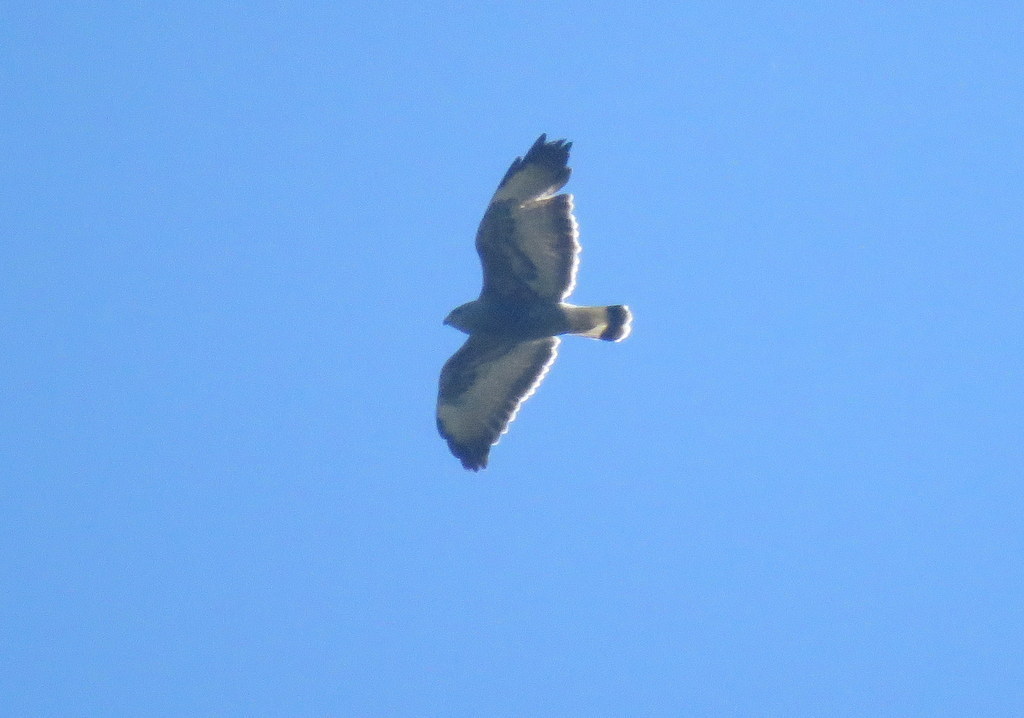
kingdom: Animalia
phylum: Chordata
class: Aves
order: Accipitriformes
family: Accipitridae
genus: Buteo
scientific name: Buteo polyosoma
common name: Variable hawk
